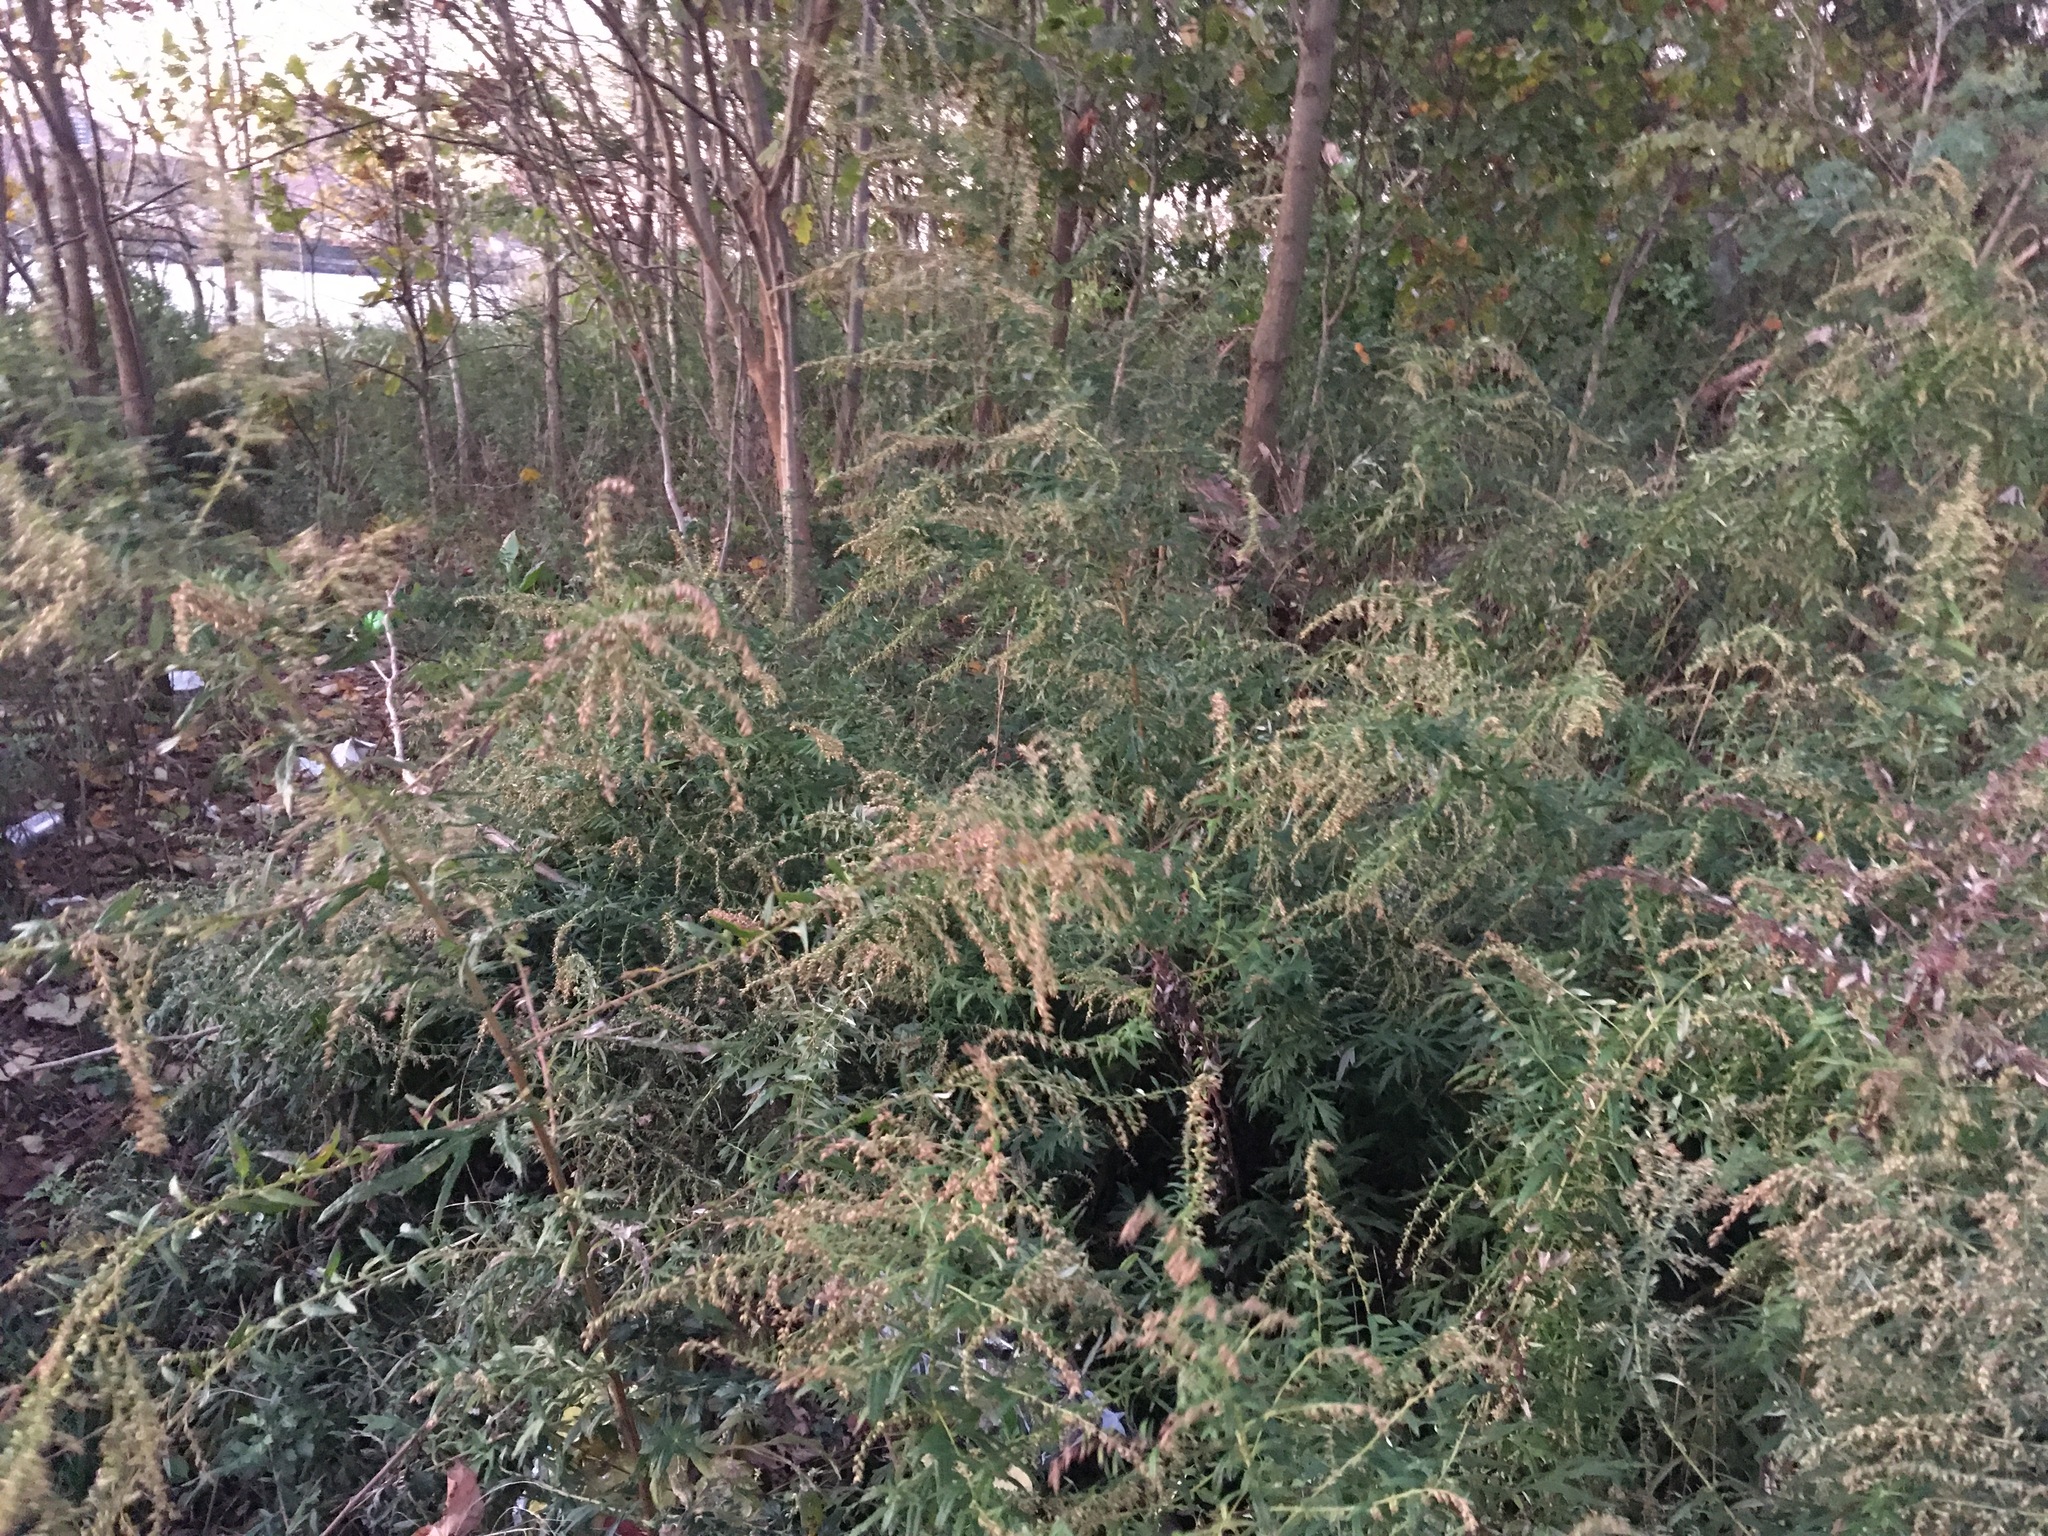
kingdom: Plantae
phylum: Tracheophyta
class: Magnoliopsida
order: Asterales
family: Asteraceae
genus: Artemisia
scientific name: Artemisia vulgaris
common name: Mugwort
